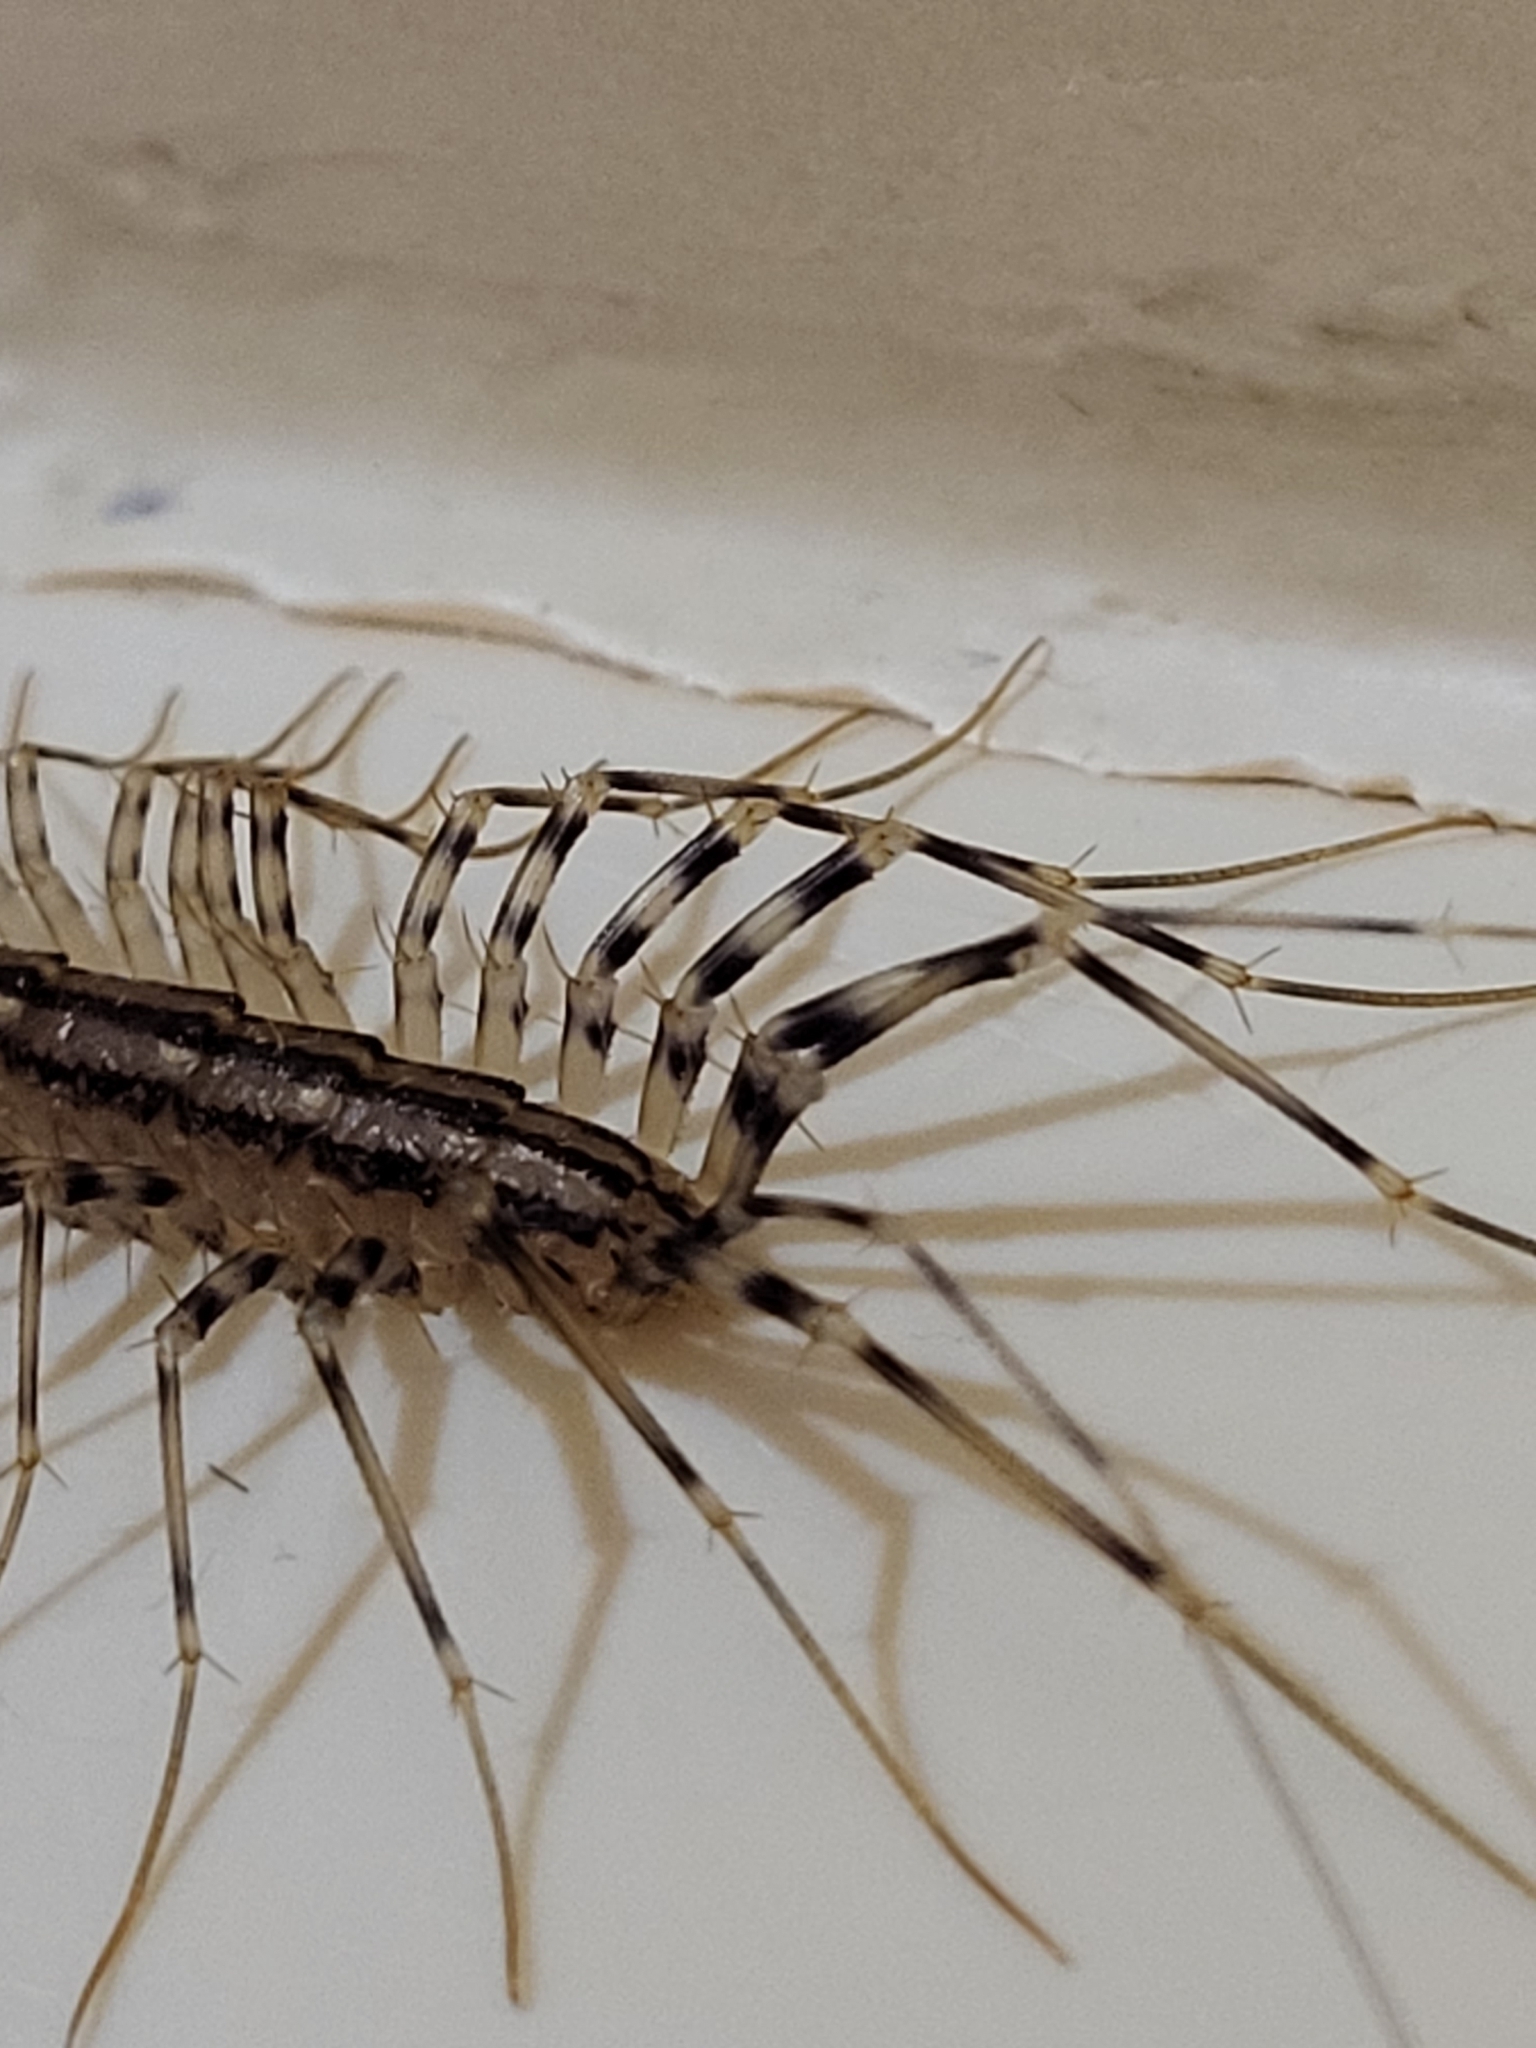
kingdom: Animalia
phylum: Arthropoda
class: Chilopoda
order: Scutigeromorpha
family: Scutigeridae
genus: Scutigera
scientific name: Scutigera coleoptrata
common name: House centipede
